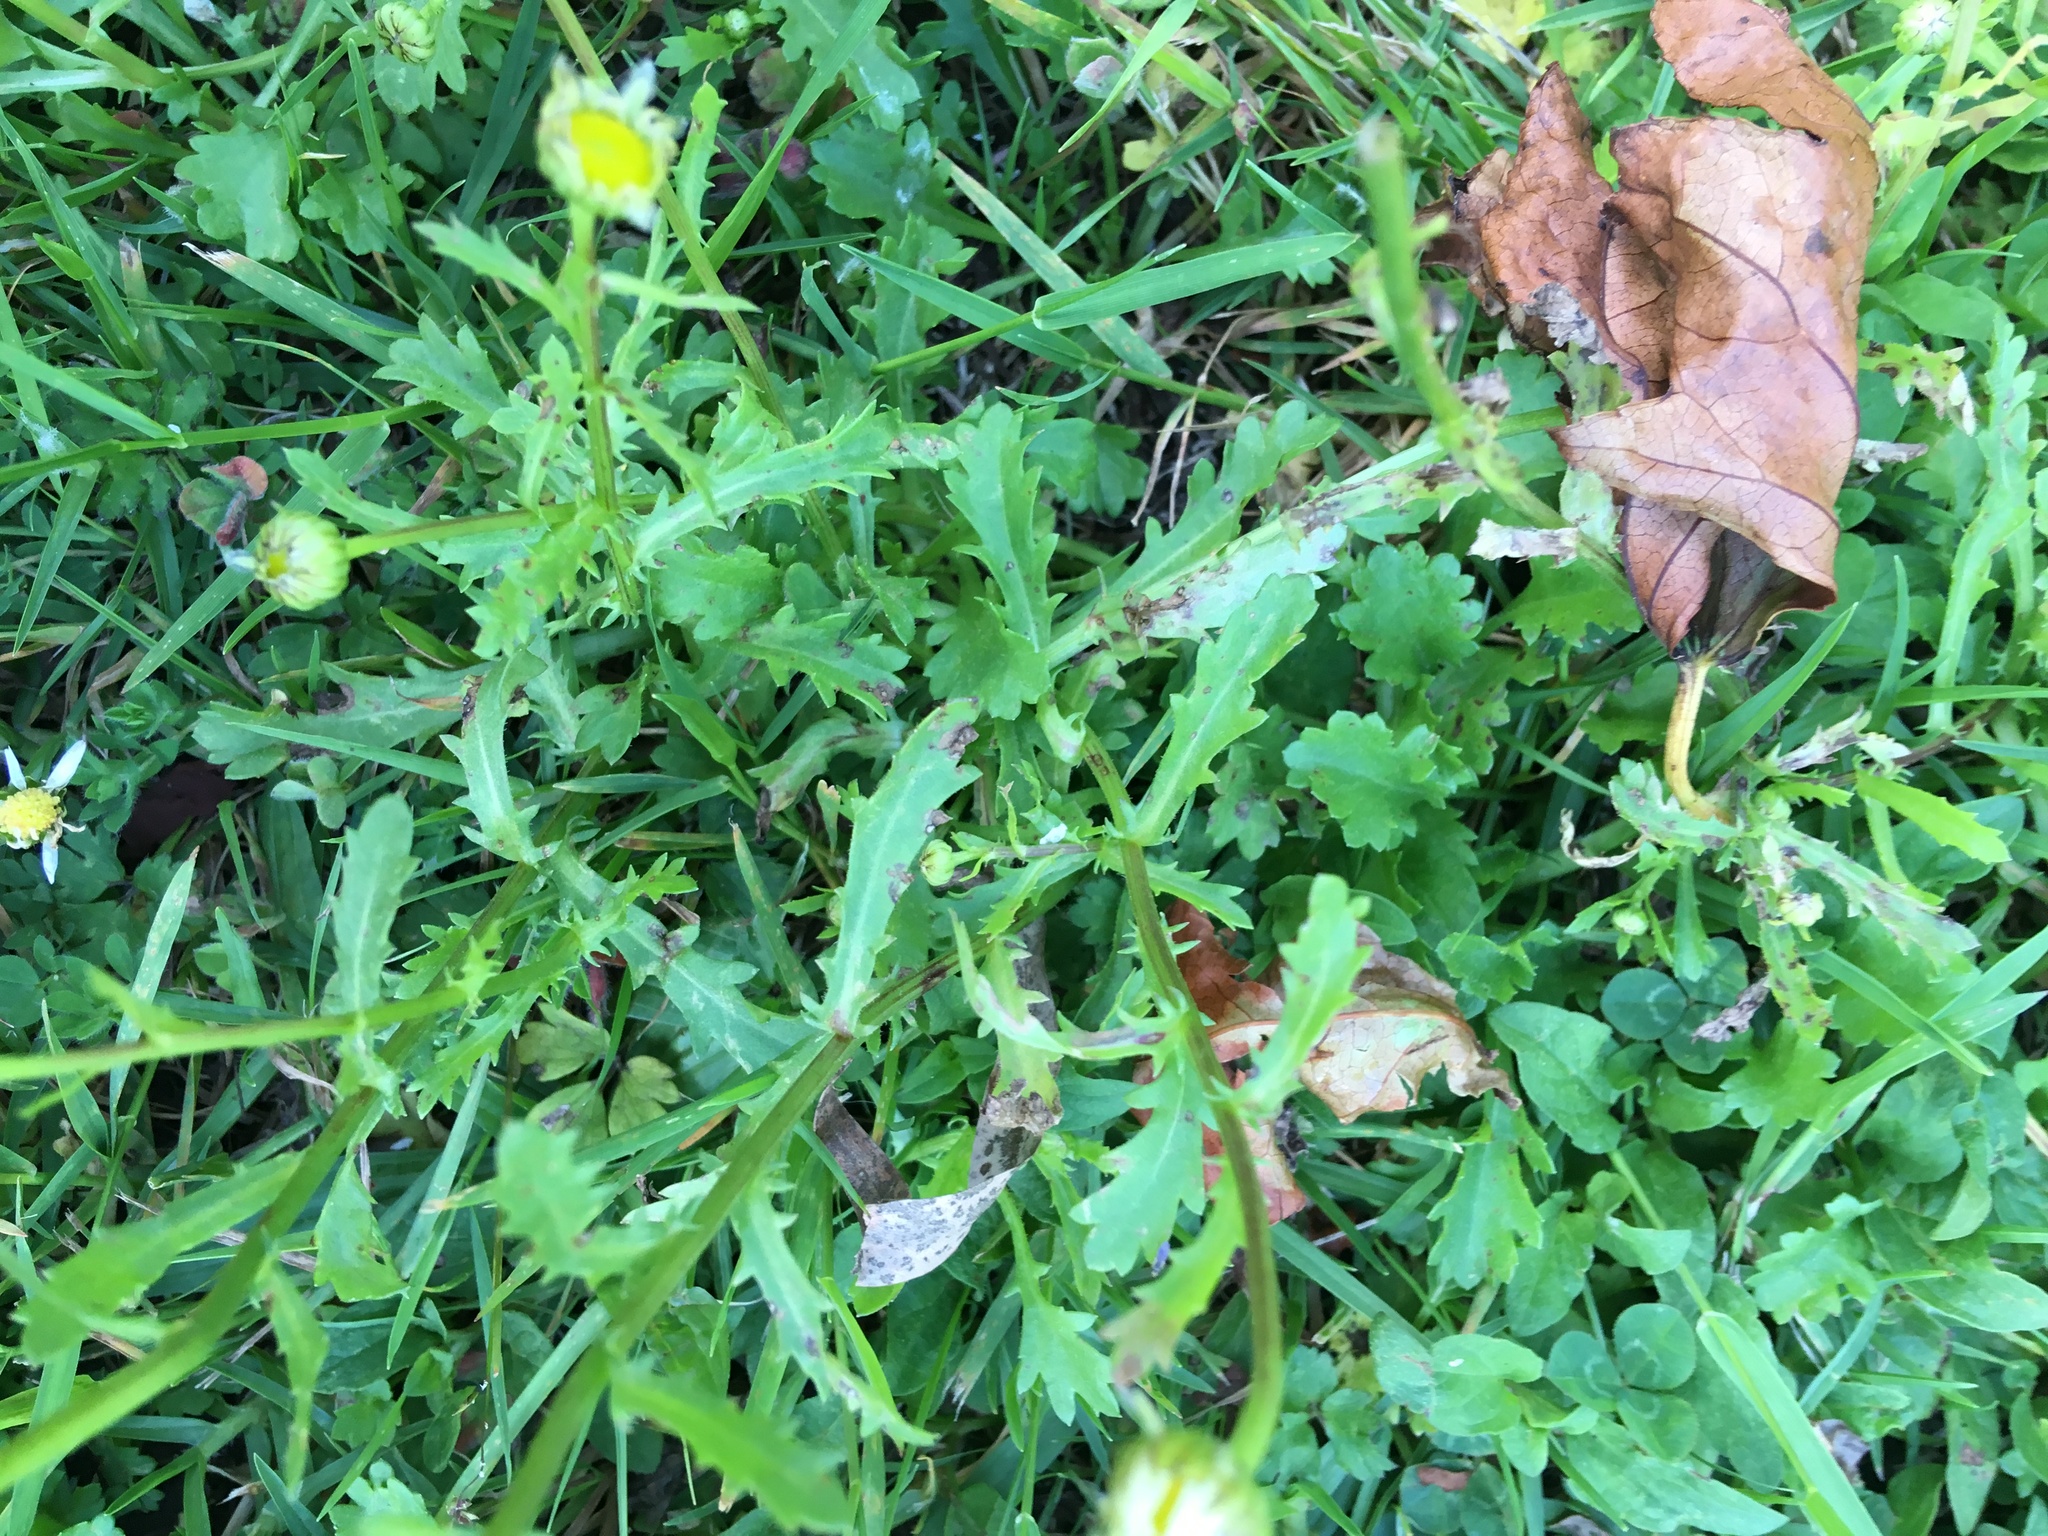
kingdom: Plantae
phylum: Tracheophyta
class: Magnoliopsida
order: Asterales
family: Asteraceae
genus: Hypochaeris
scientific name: Hypochaeris radicata
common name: Flatweed
